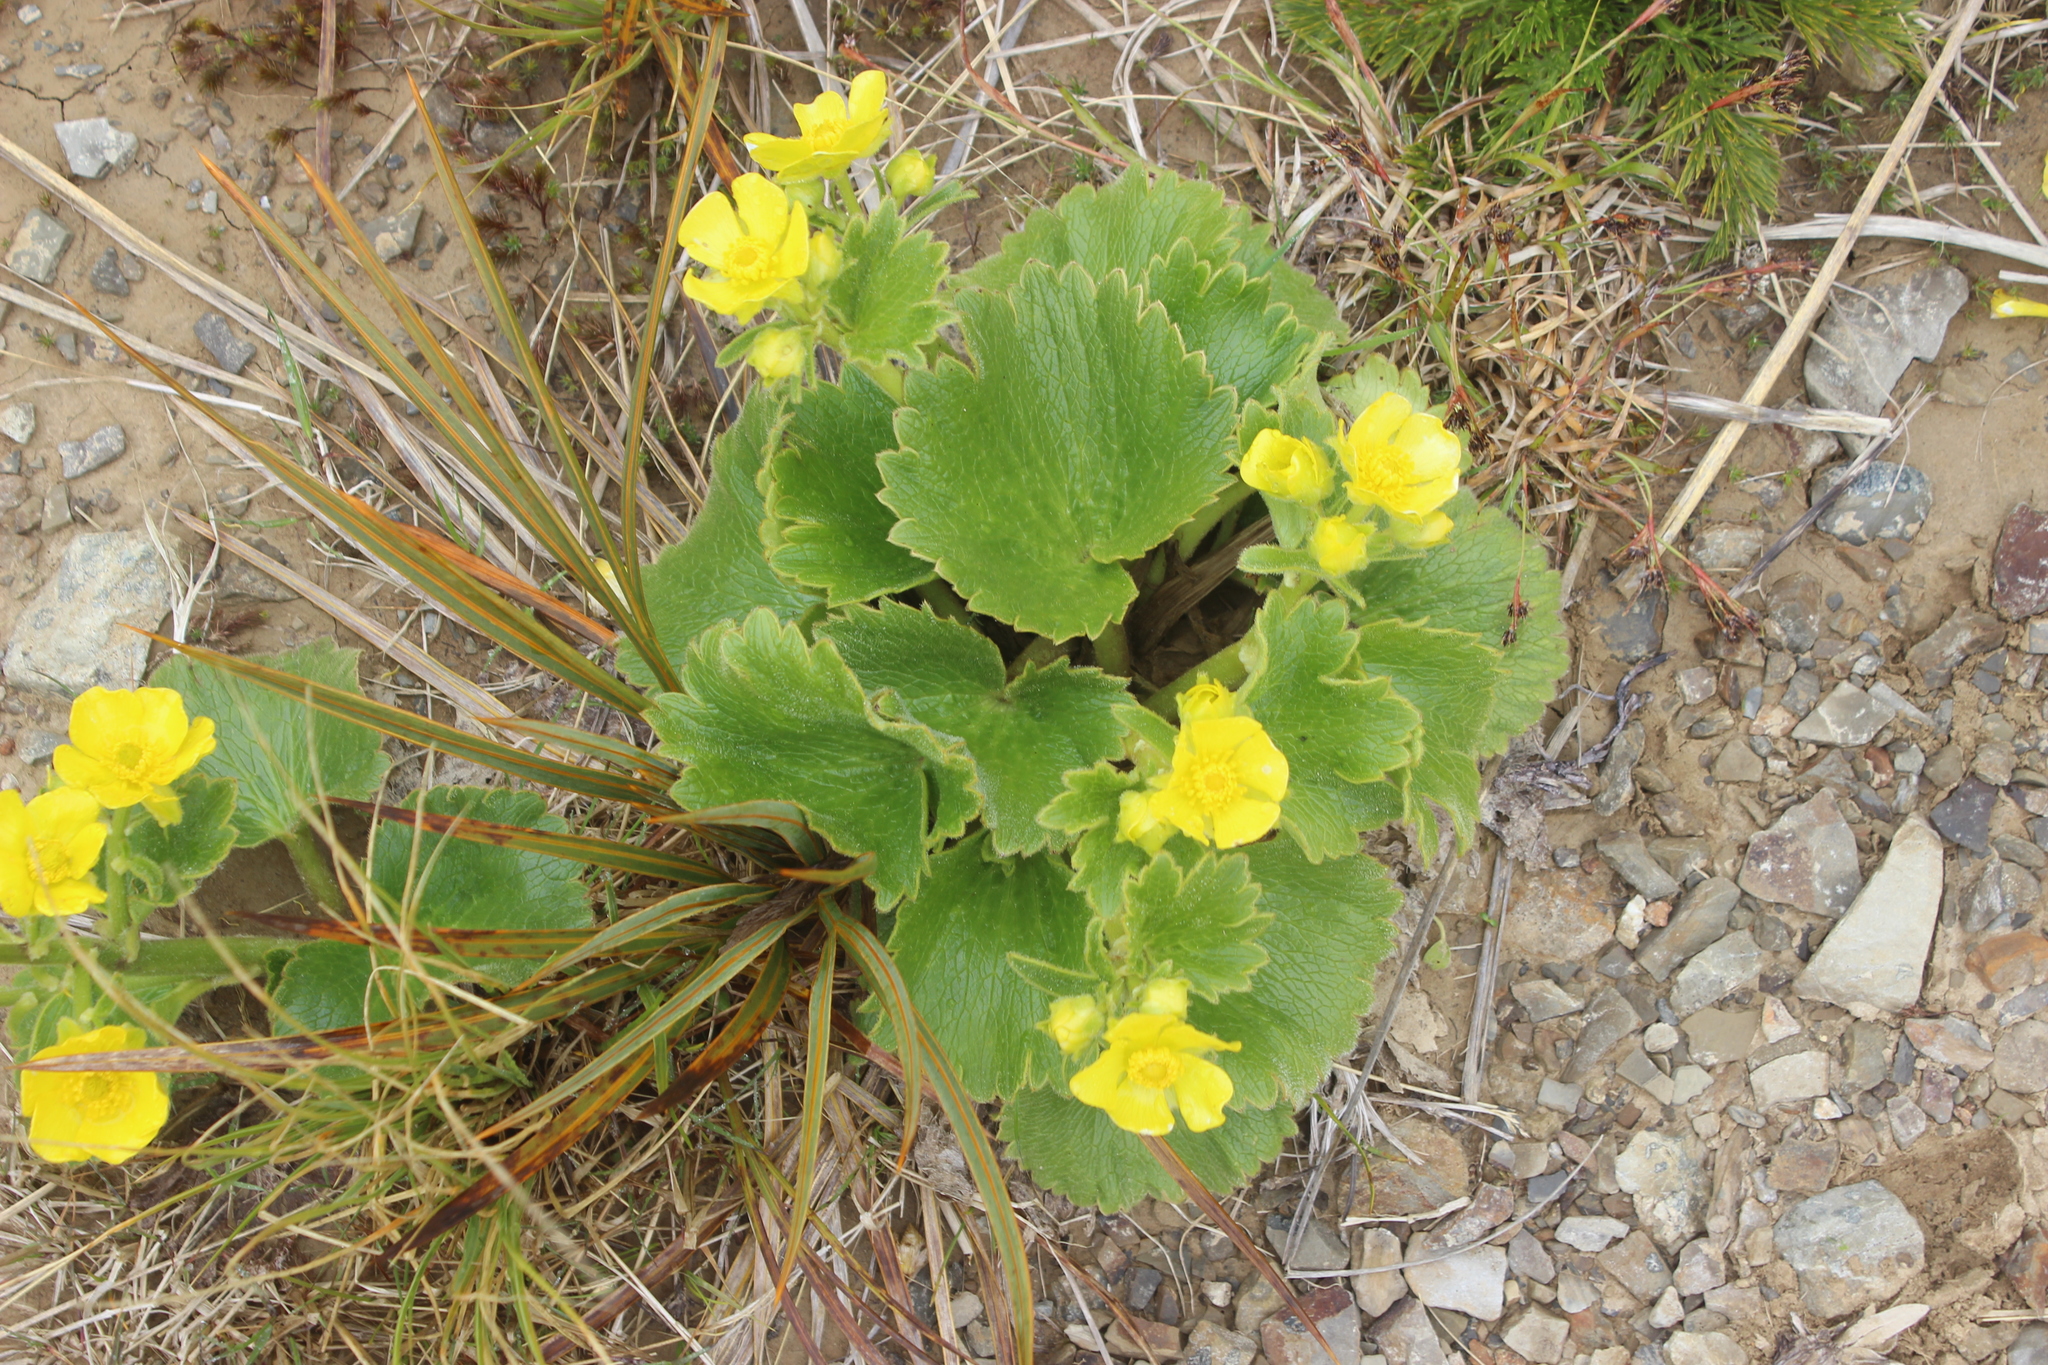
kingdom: Plantae
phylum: Tracheophyta
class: Magnoliopsida
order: Ranunculales
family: Ranunculaceae
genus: Ranunculus
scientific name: Ranunculus insignis
